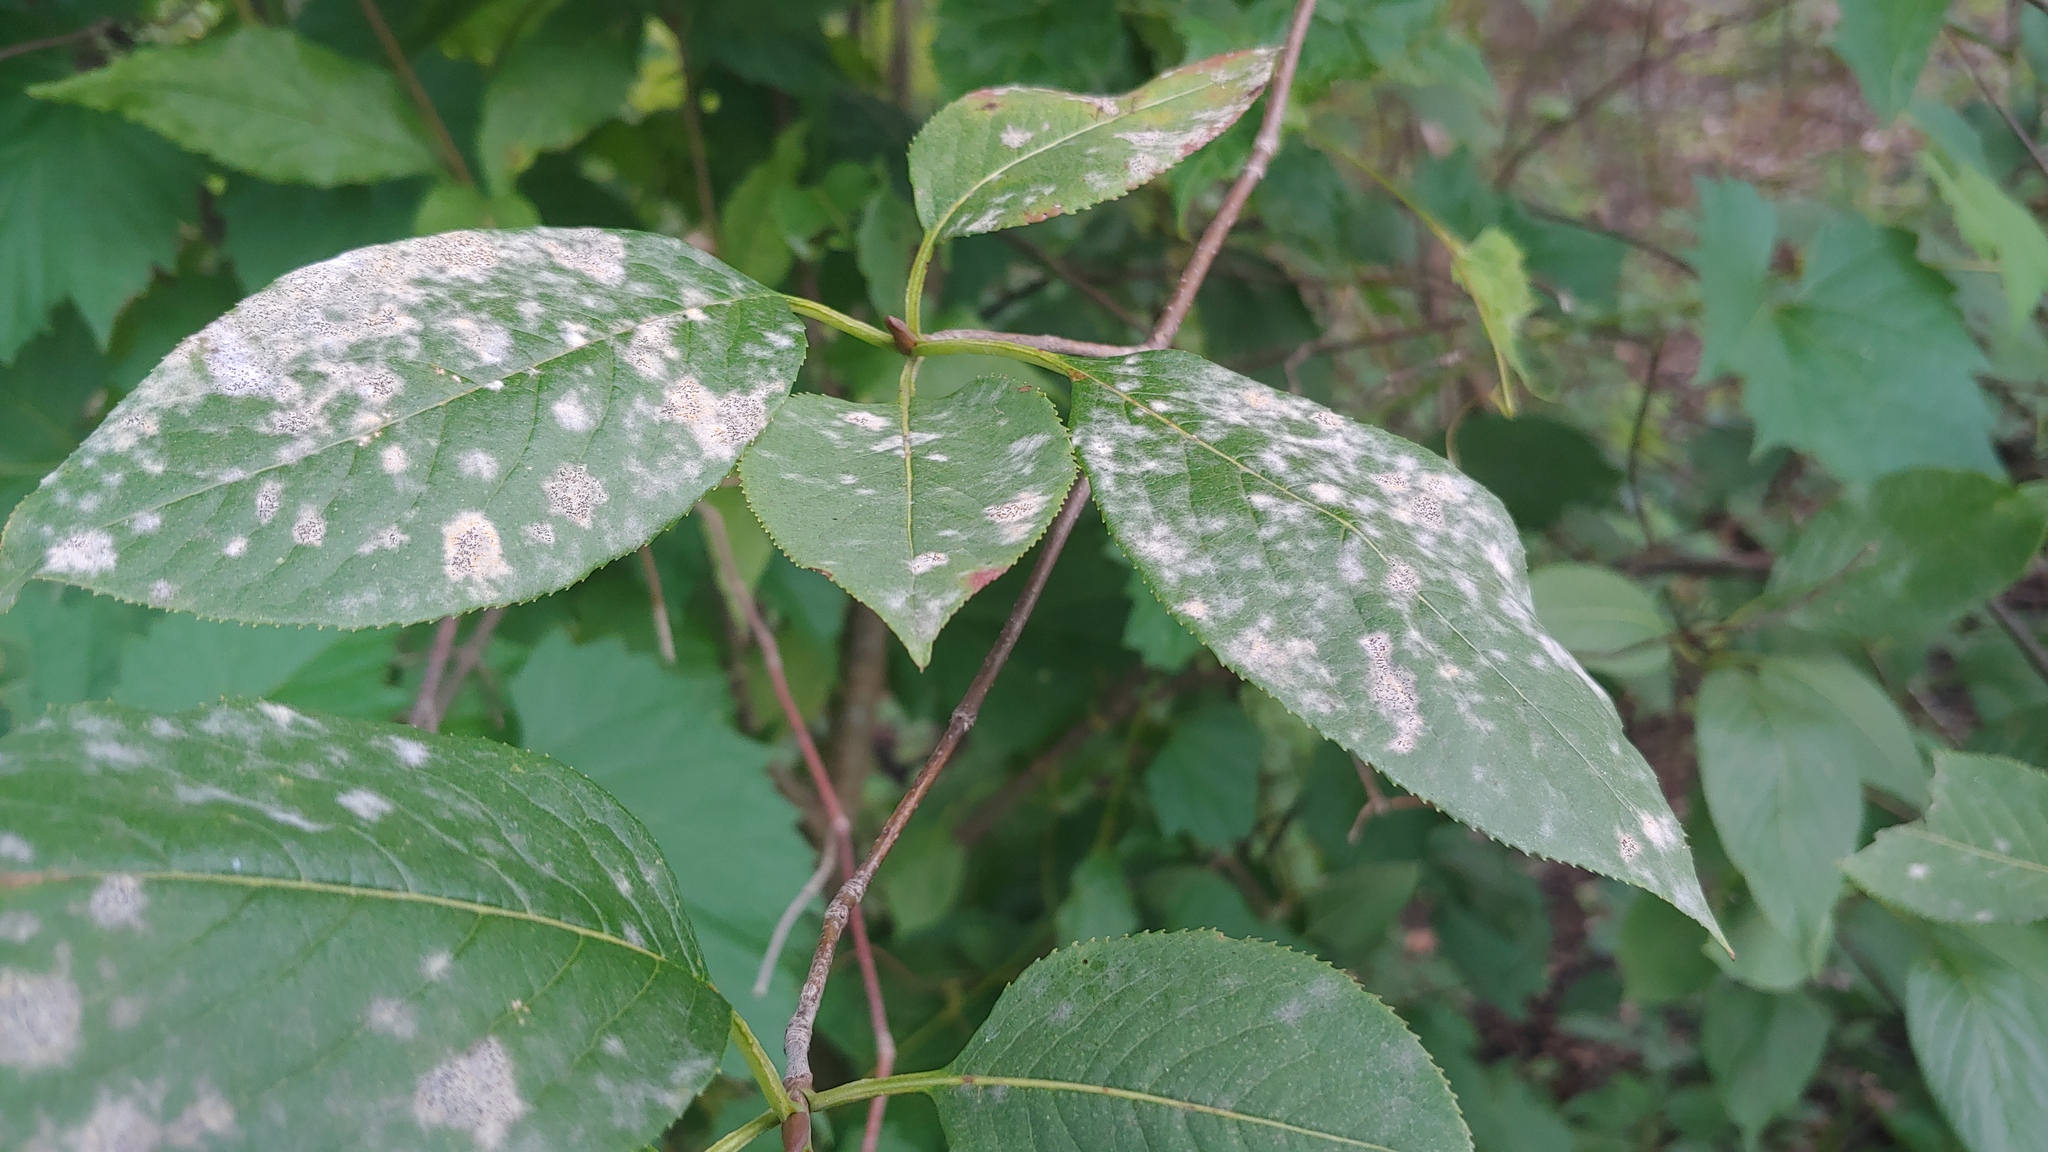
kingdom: Plantae
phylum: Tracheophyta
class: Magnoliopsida
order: Dipsacales
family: Viburnaceae
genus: Viburnum
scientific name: Viburnum lentago
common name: Black haw
